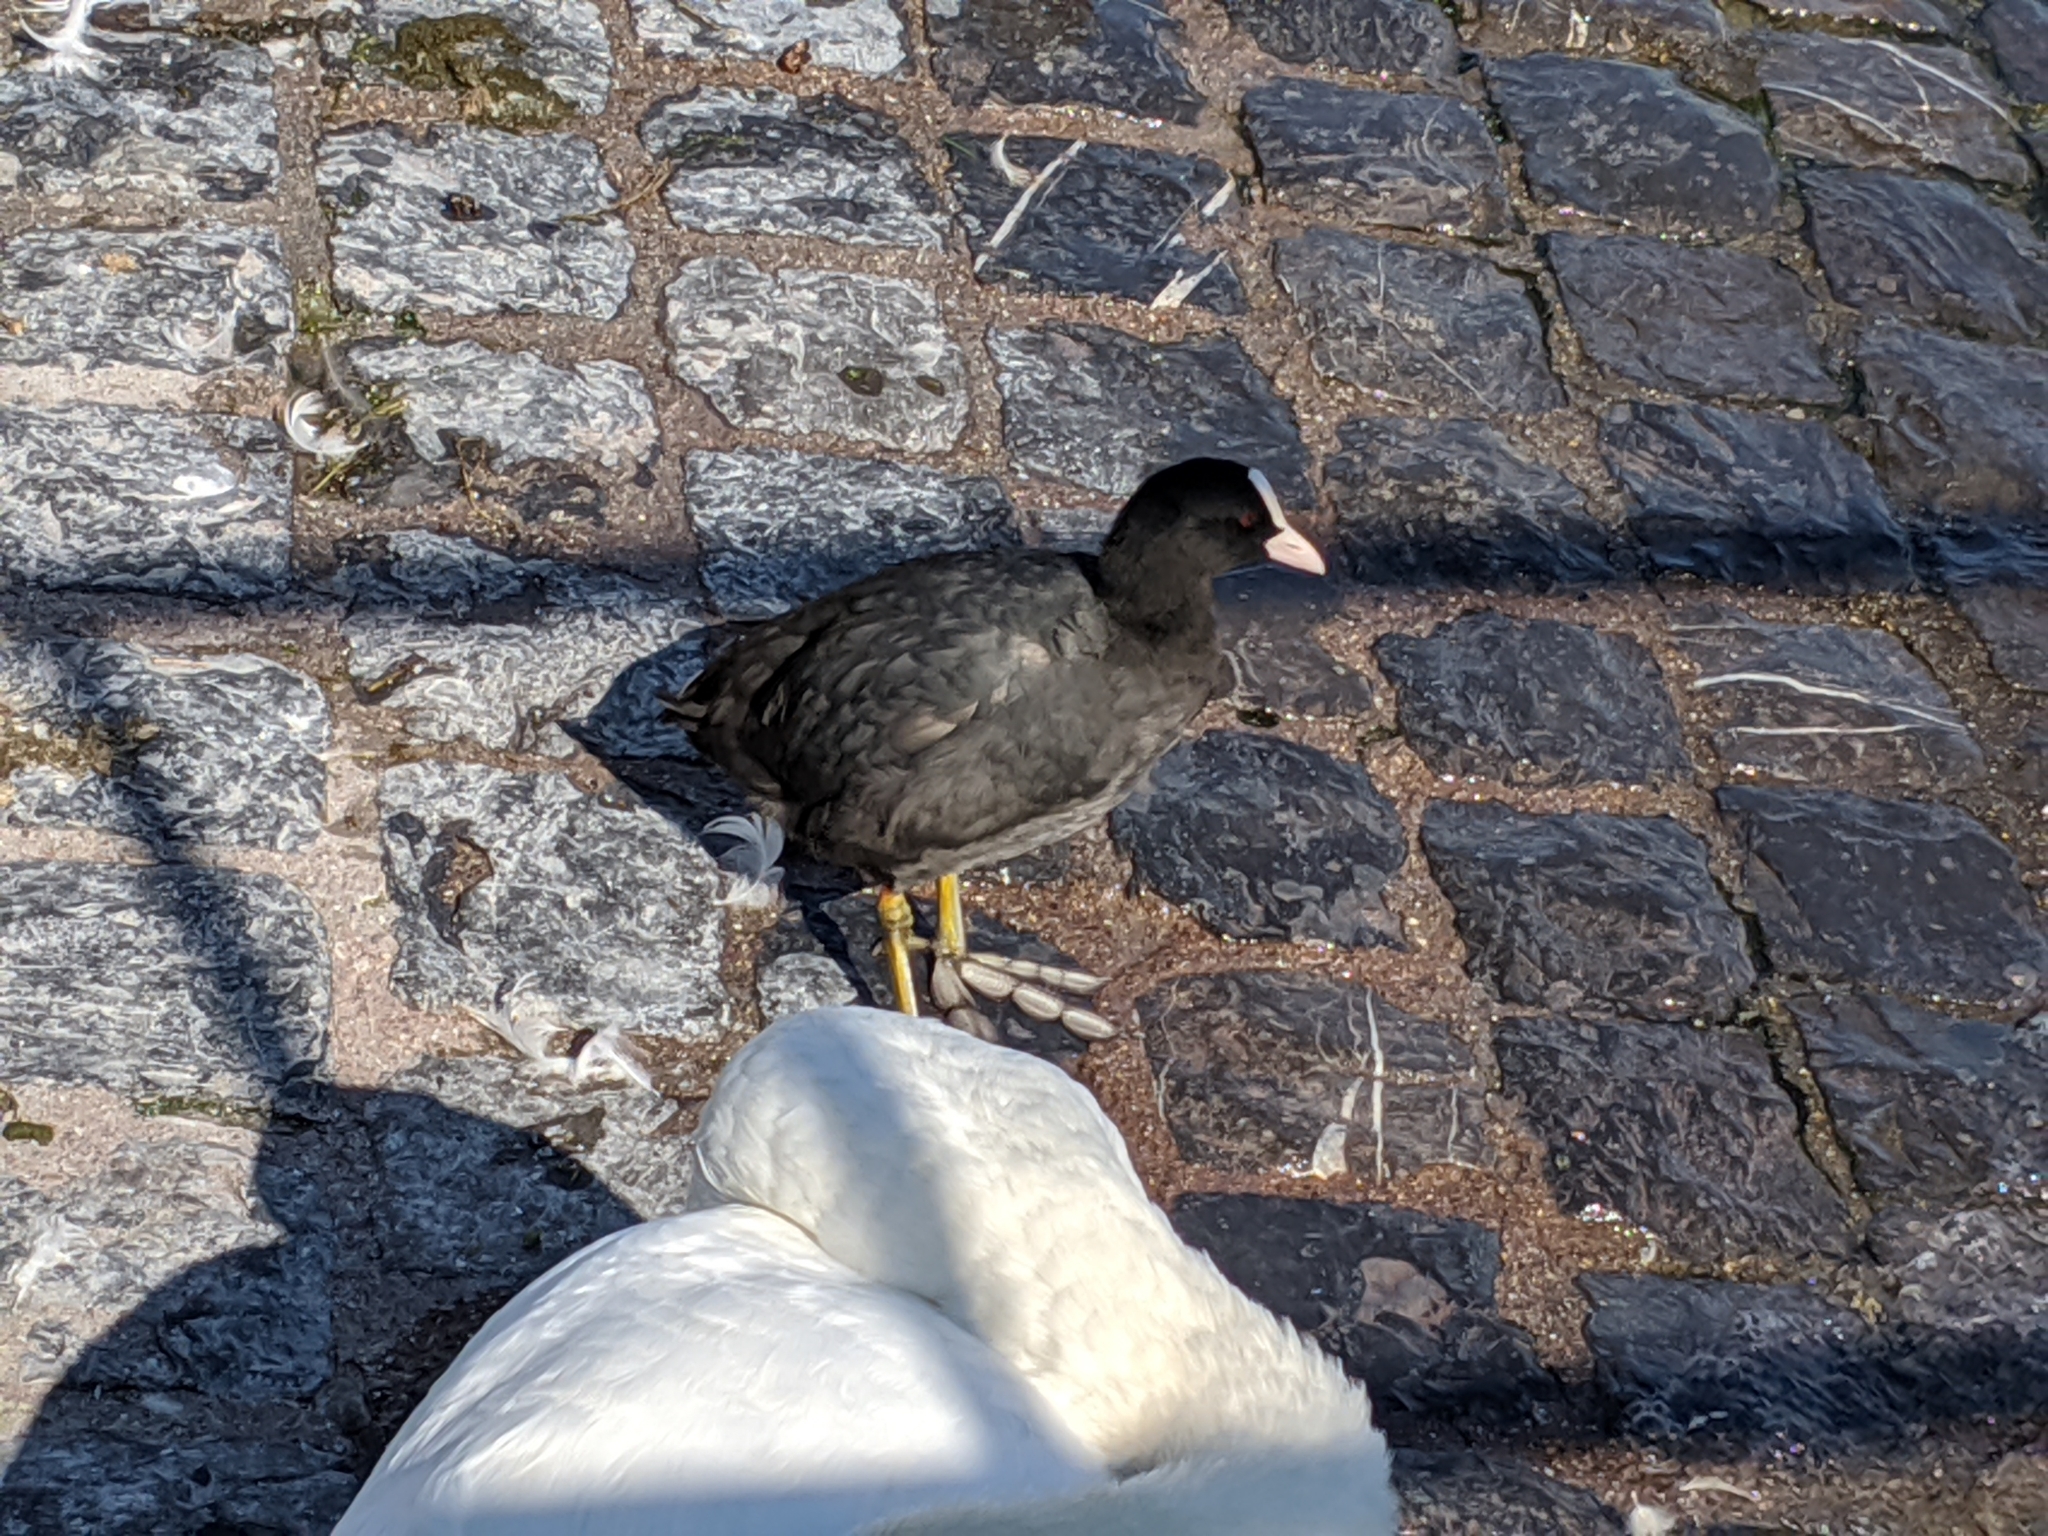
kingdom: Animalia
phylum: Chordata
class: Aves
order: Gruiformes
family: Rallidae
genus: Fulica
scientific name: Fulica atra
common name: Eurasian coot
